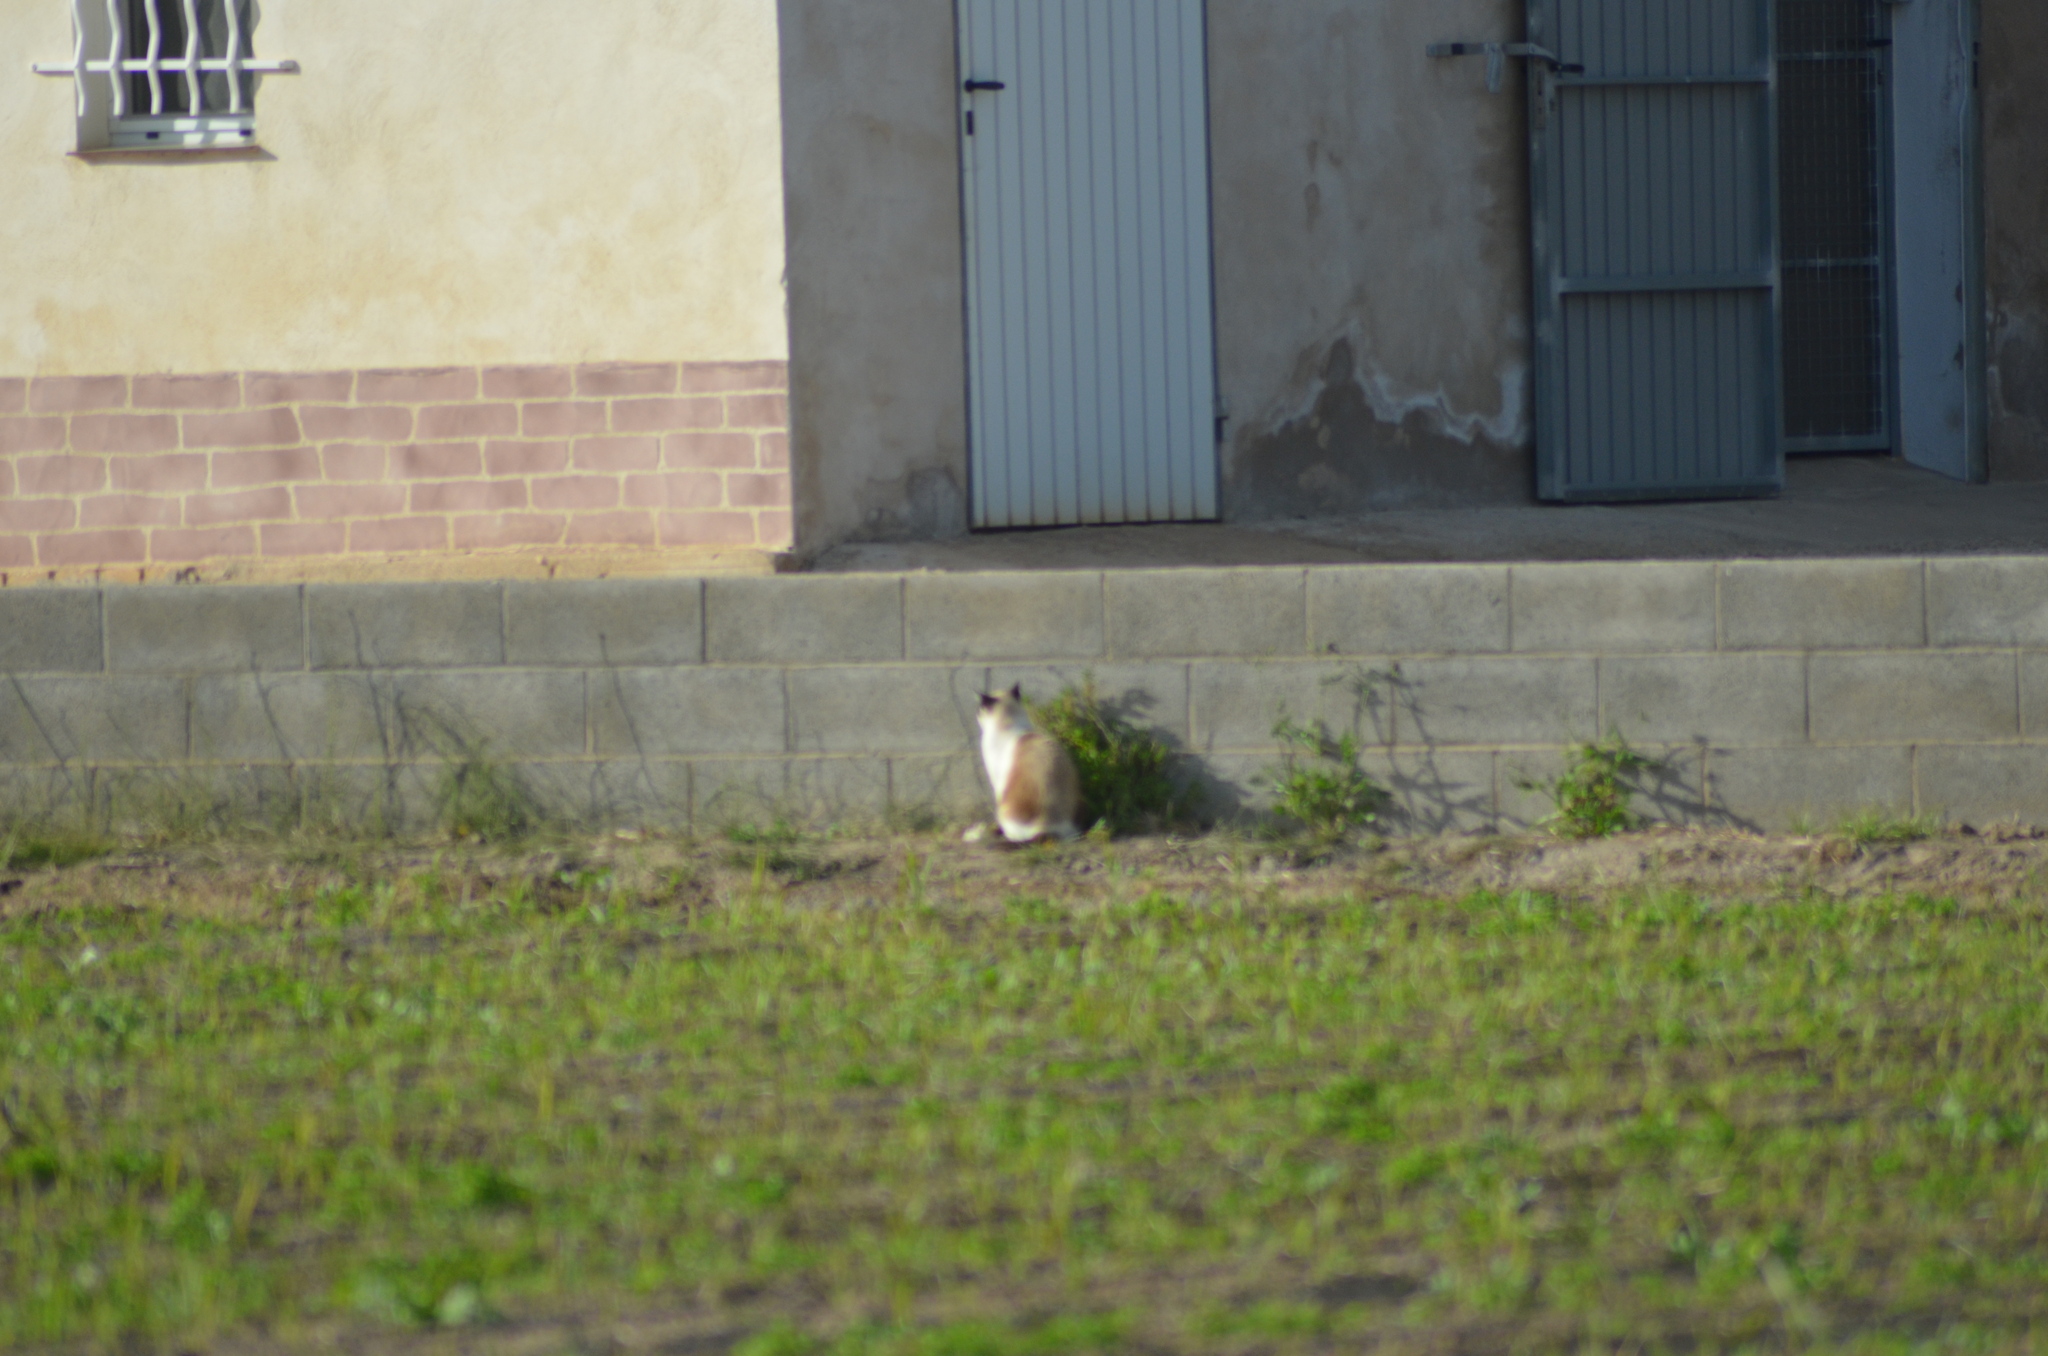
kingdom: Animalia
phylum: Chordata
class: Mammalia
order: Carnivora
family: Felidae
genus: Felis
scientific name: Felis catus
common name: Domestic cat
